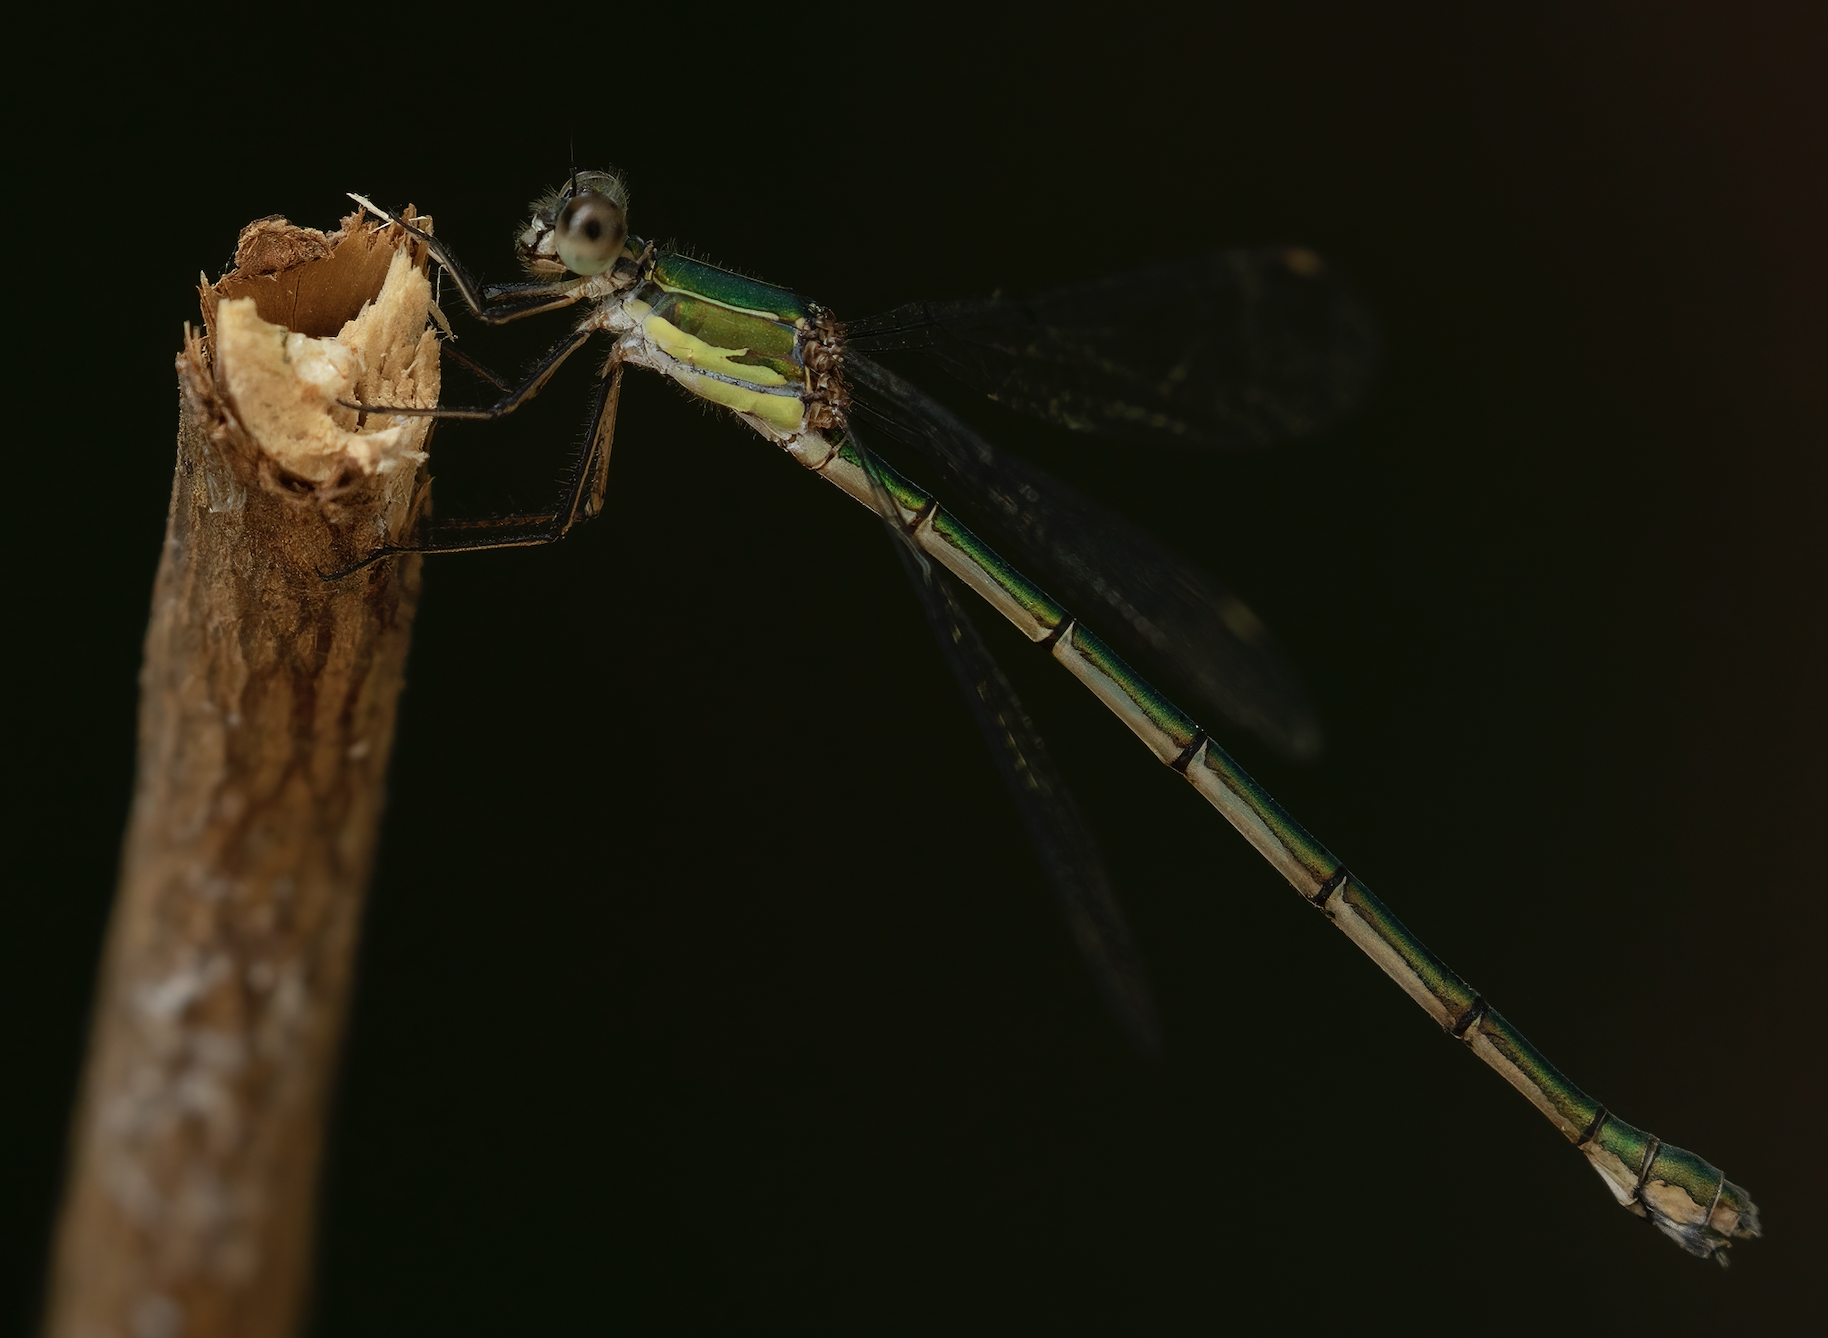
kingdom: Animalia
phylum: Arthropoda
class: Insecta
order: Odonata
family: Lestidae
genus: Chalcolestes
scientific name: Chalcolestes viridis
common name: Green emerald damselfly
